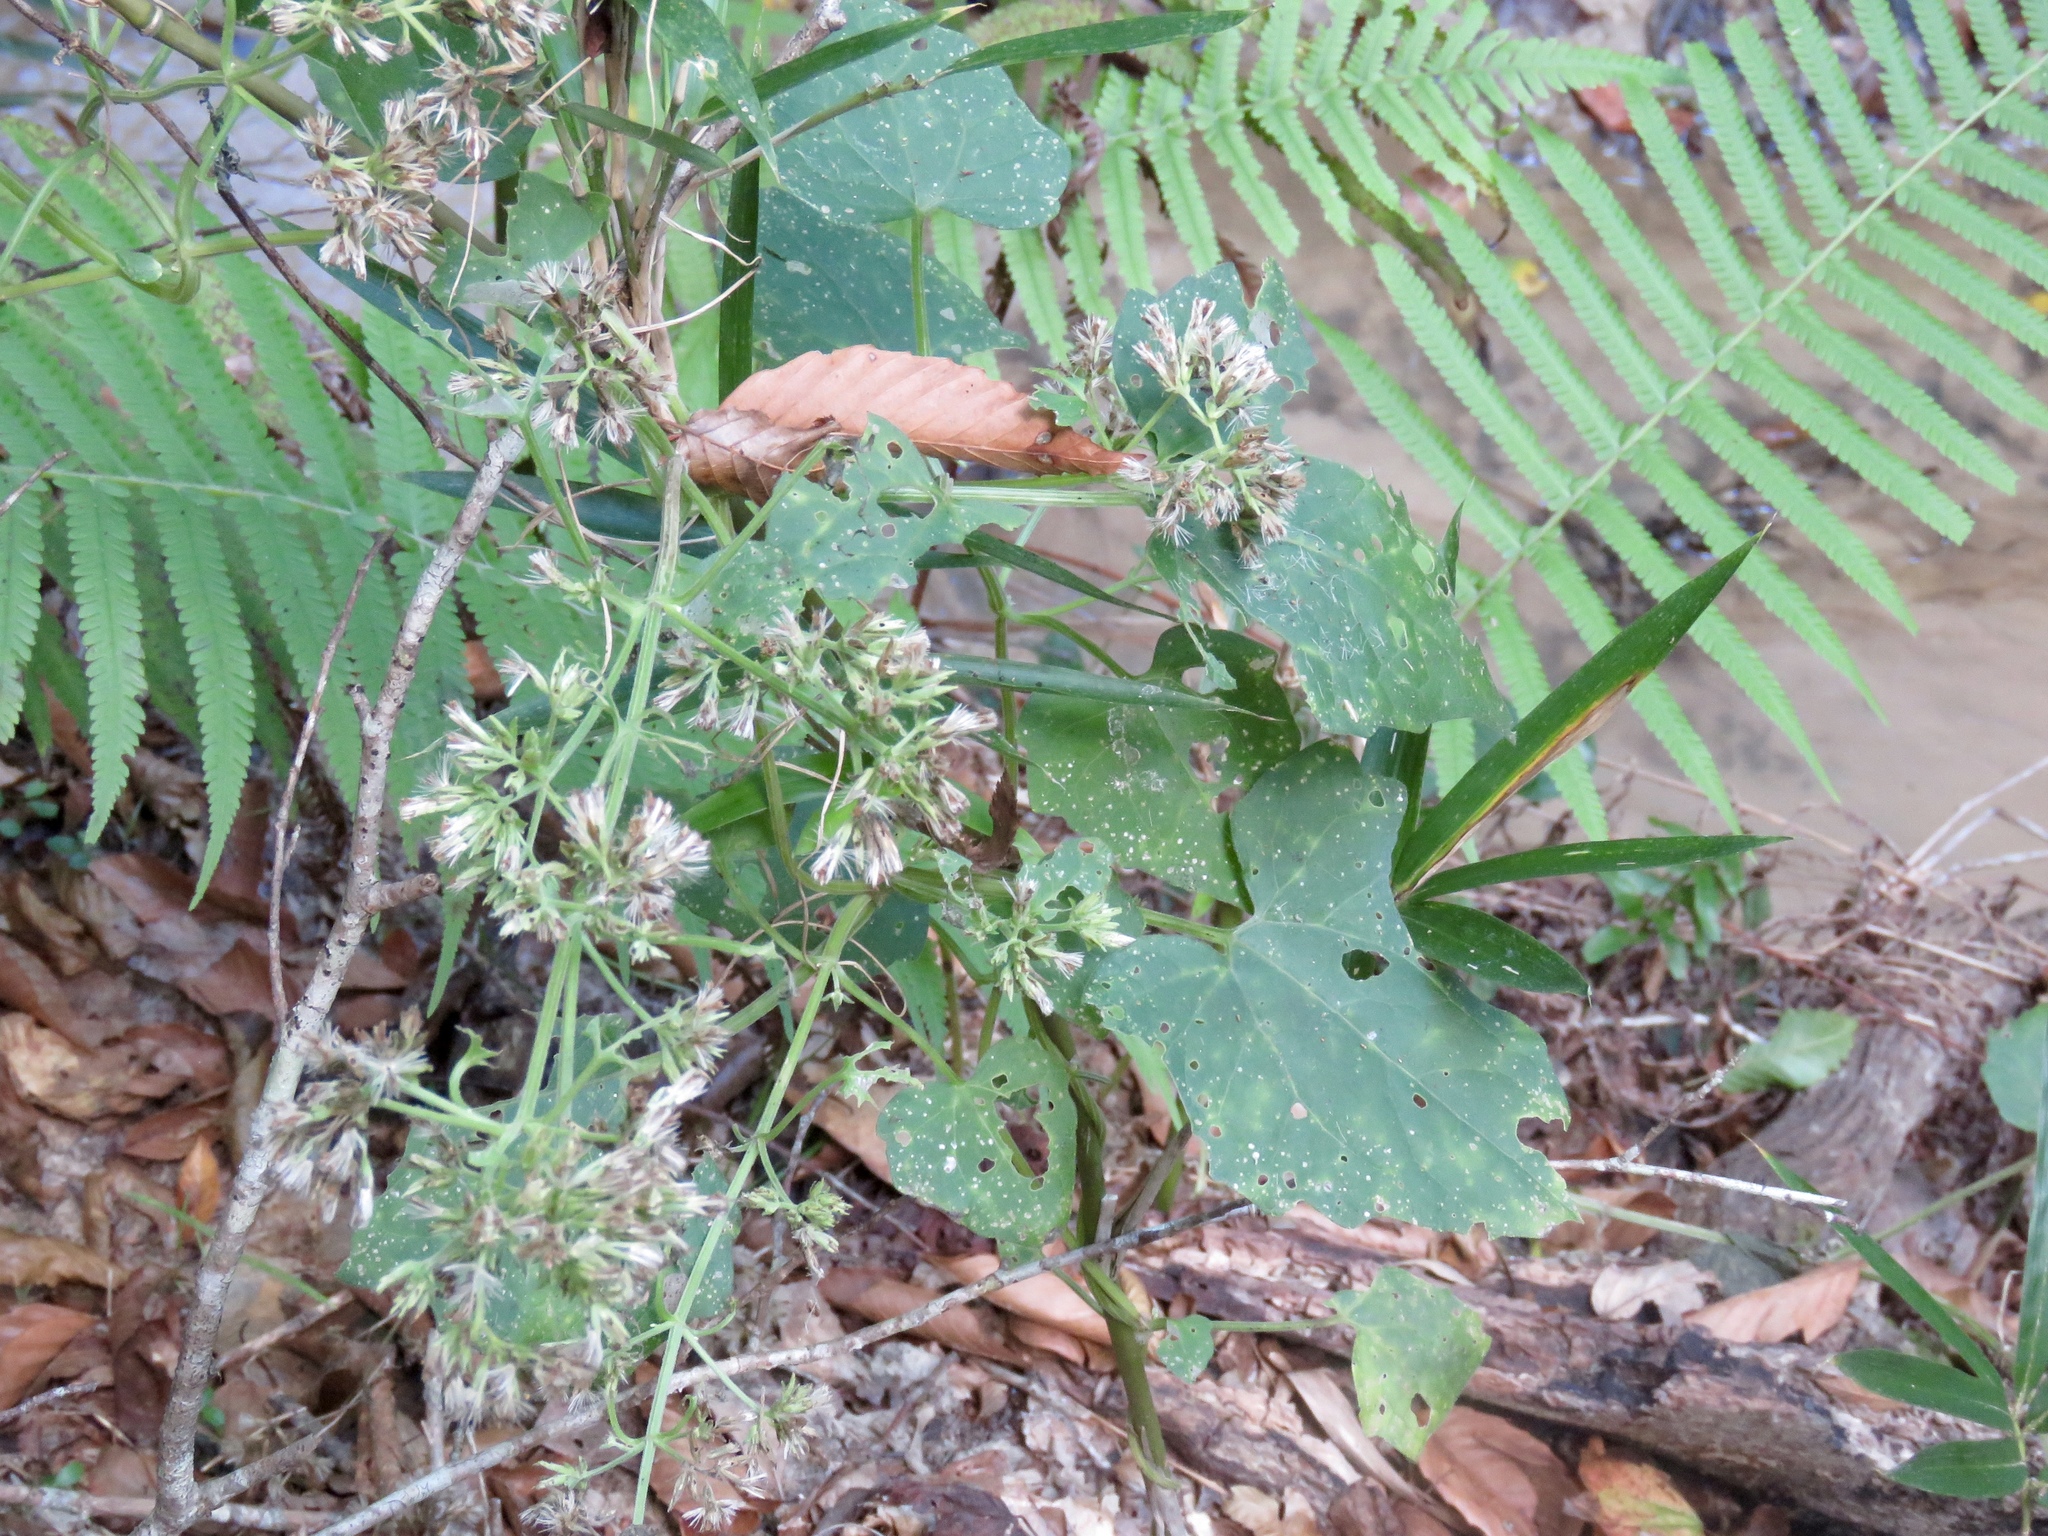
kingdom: Plantae
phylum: Tracheophyta
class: Magnoliopsida
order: Asterales
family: Asteraceae
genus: Mikania
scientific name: Mikania cordifolia
